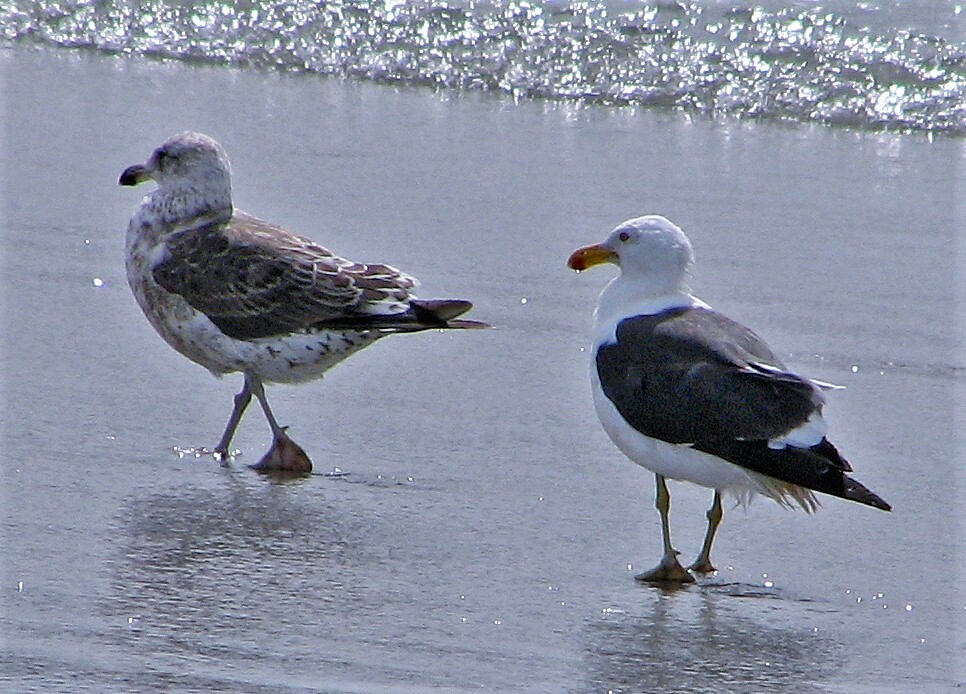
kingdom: Animalia
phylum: Chordata
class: Aves
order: Charadriiformes
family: Laridae
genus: Larus
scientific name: Larus dominicanus
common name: Kelp gull
